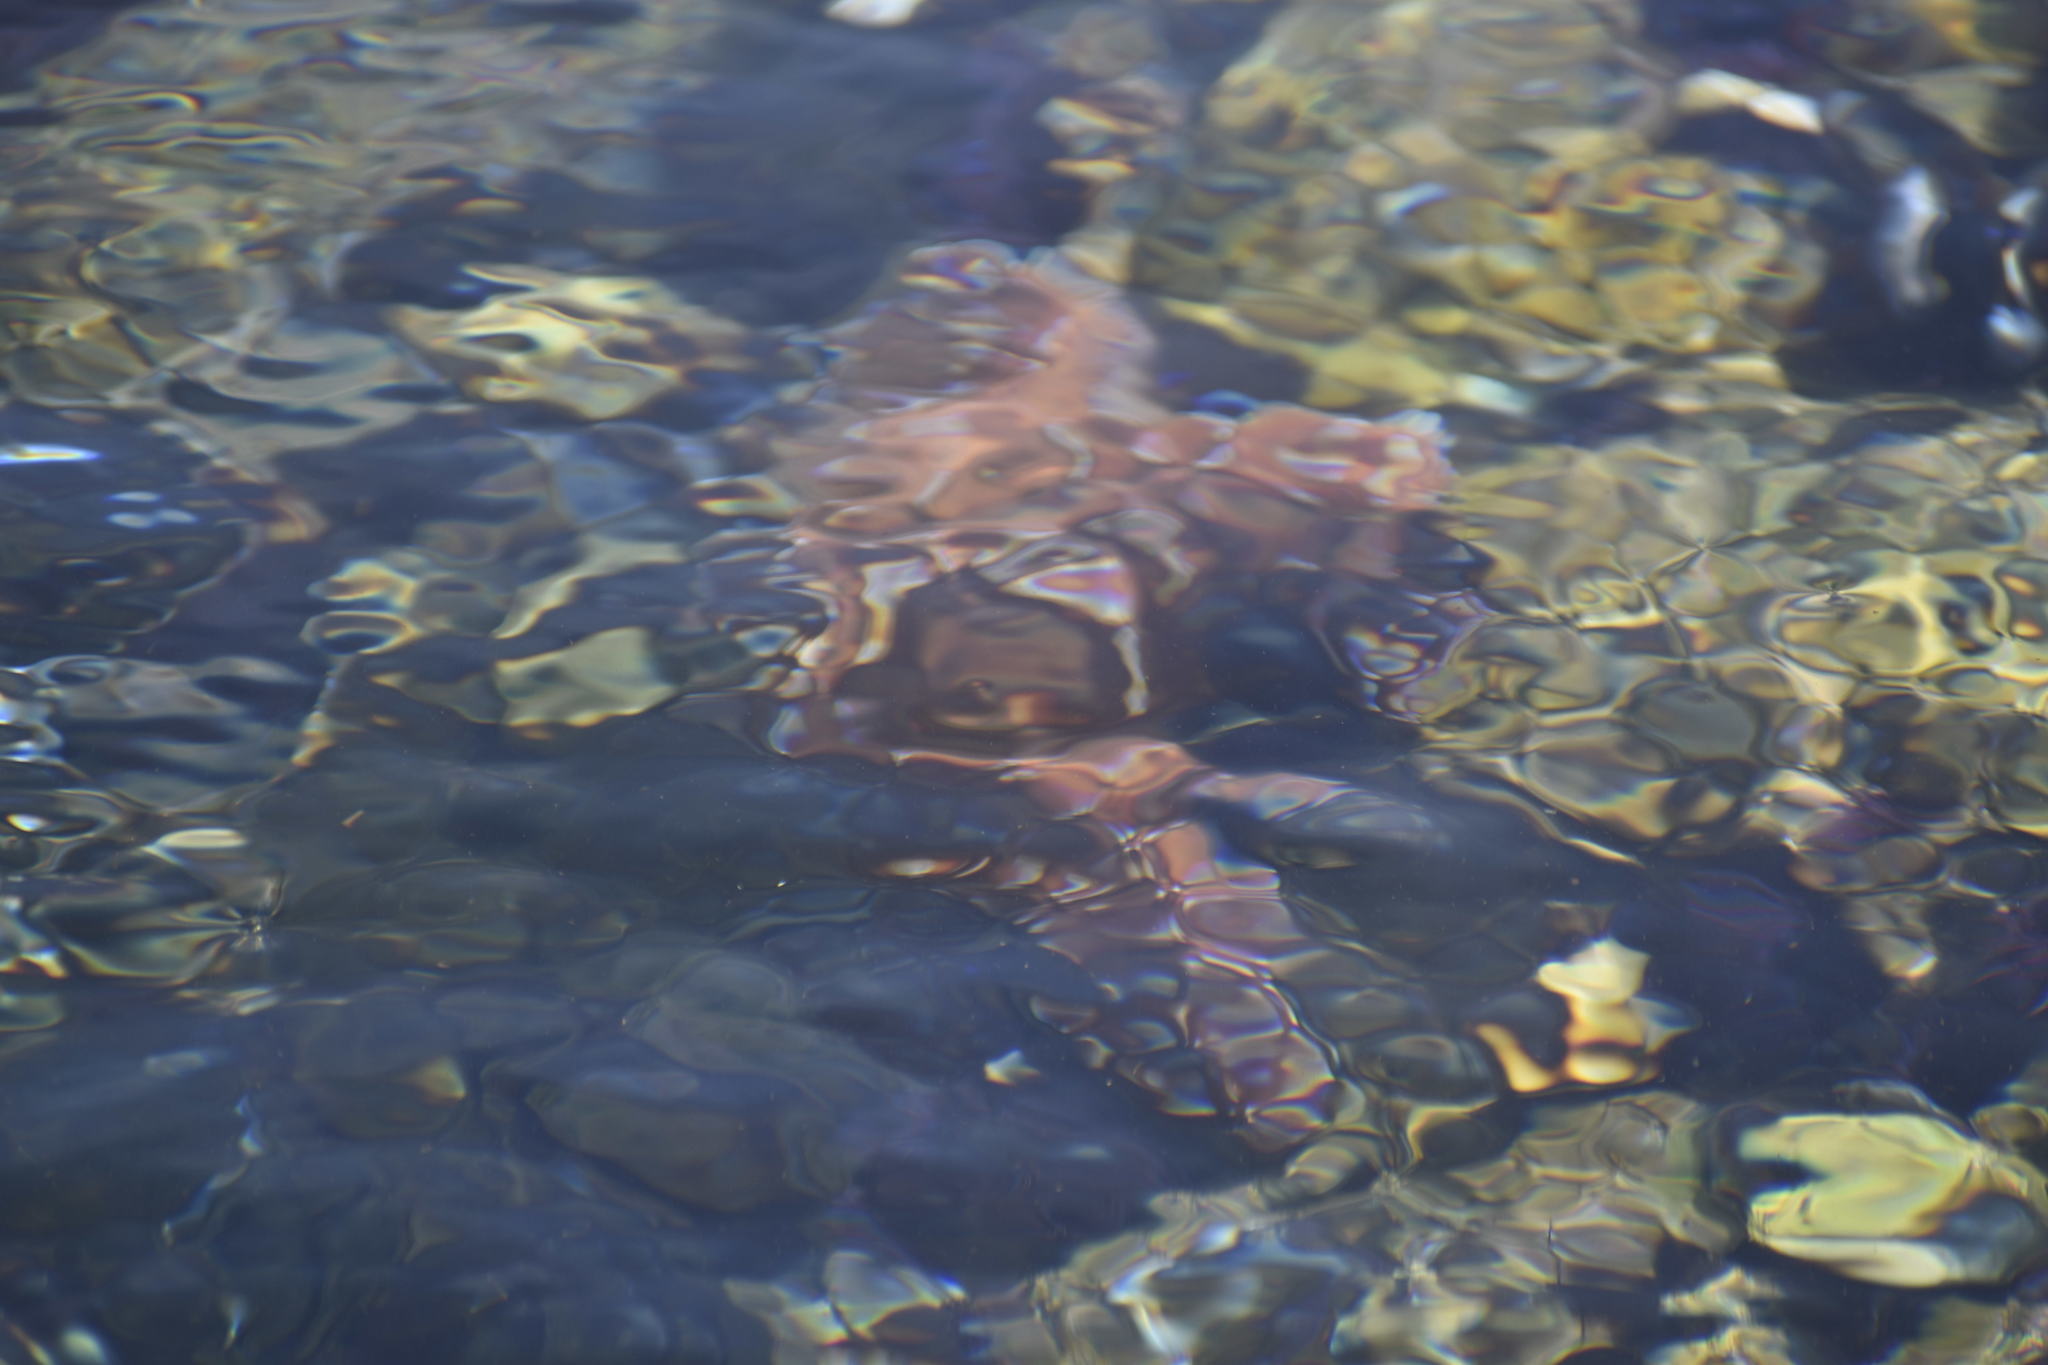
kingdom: Animalia
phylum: Echinodermata
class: Asteroidea
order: Forcipulatida
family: Asteriidae
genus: Pisaster
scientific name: Pisaster ochraceus
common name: Ochre stars
